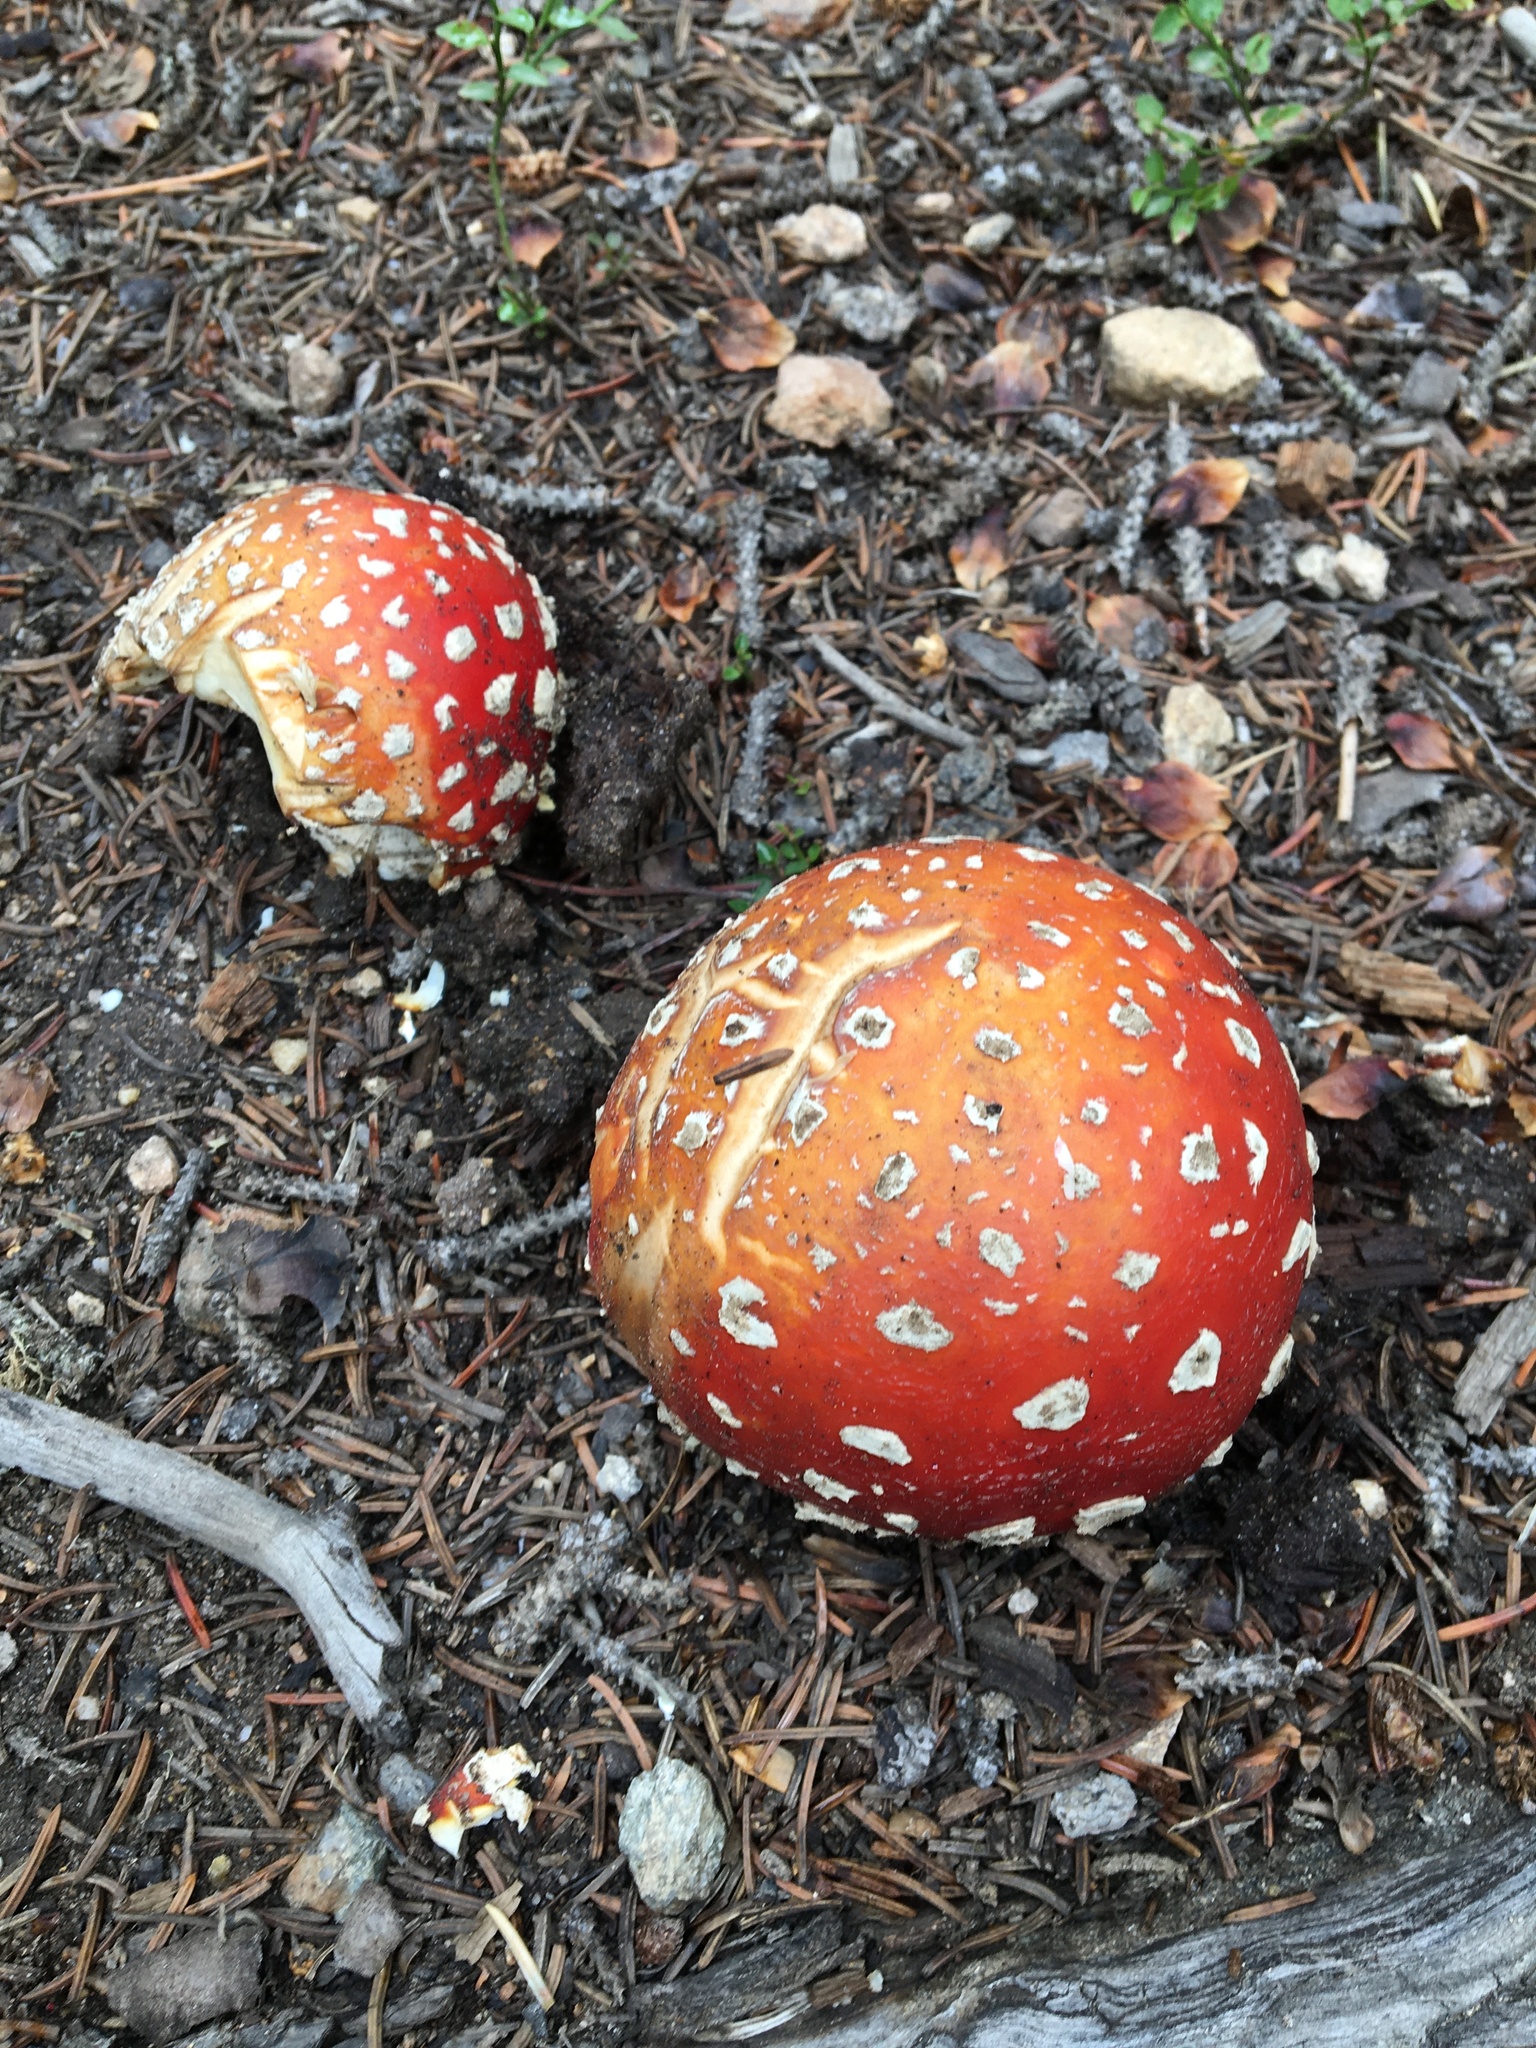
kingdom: Fungi
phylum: Basidiomycota
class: Agaricomycetes
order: Agaricales
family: Amanitaceae
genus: Amanita
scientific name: Amanita muscaria
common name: Fly agaric
